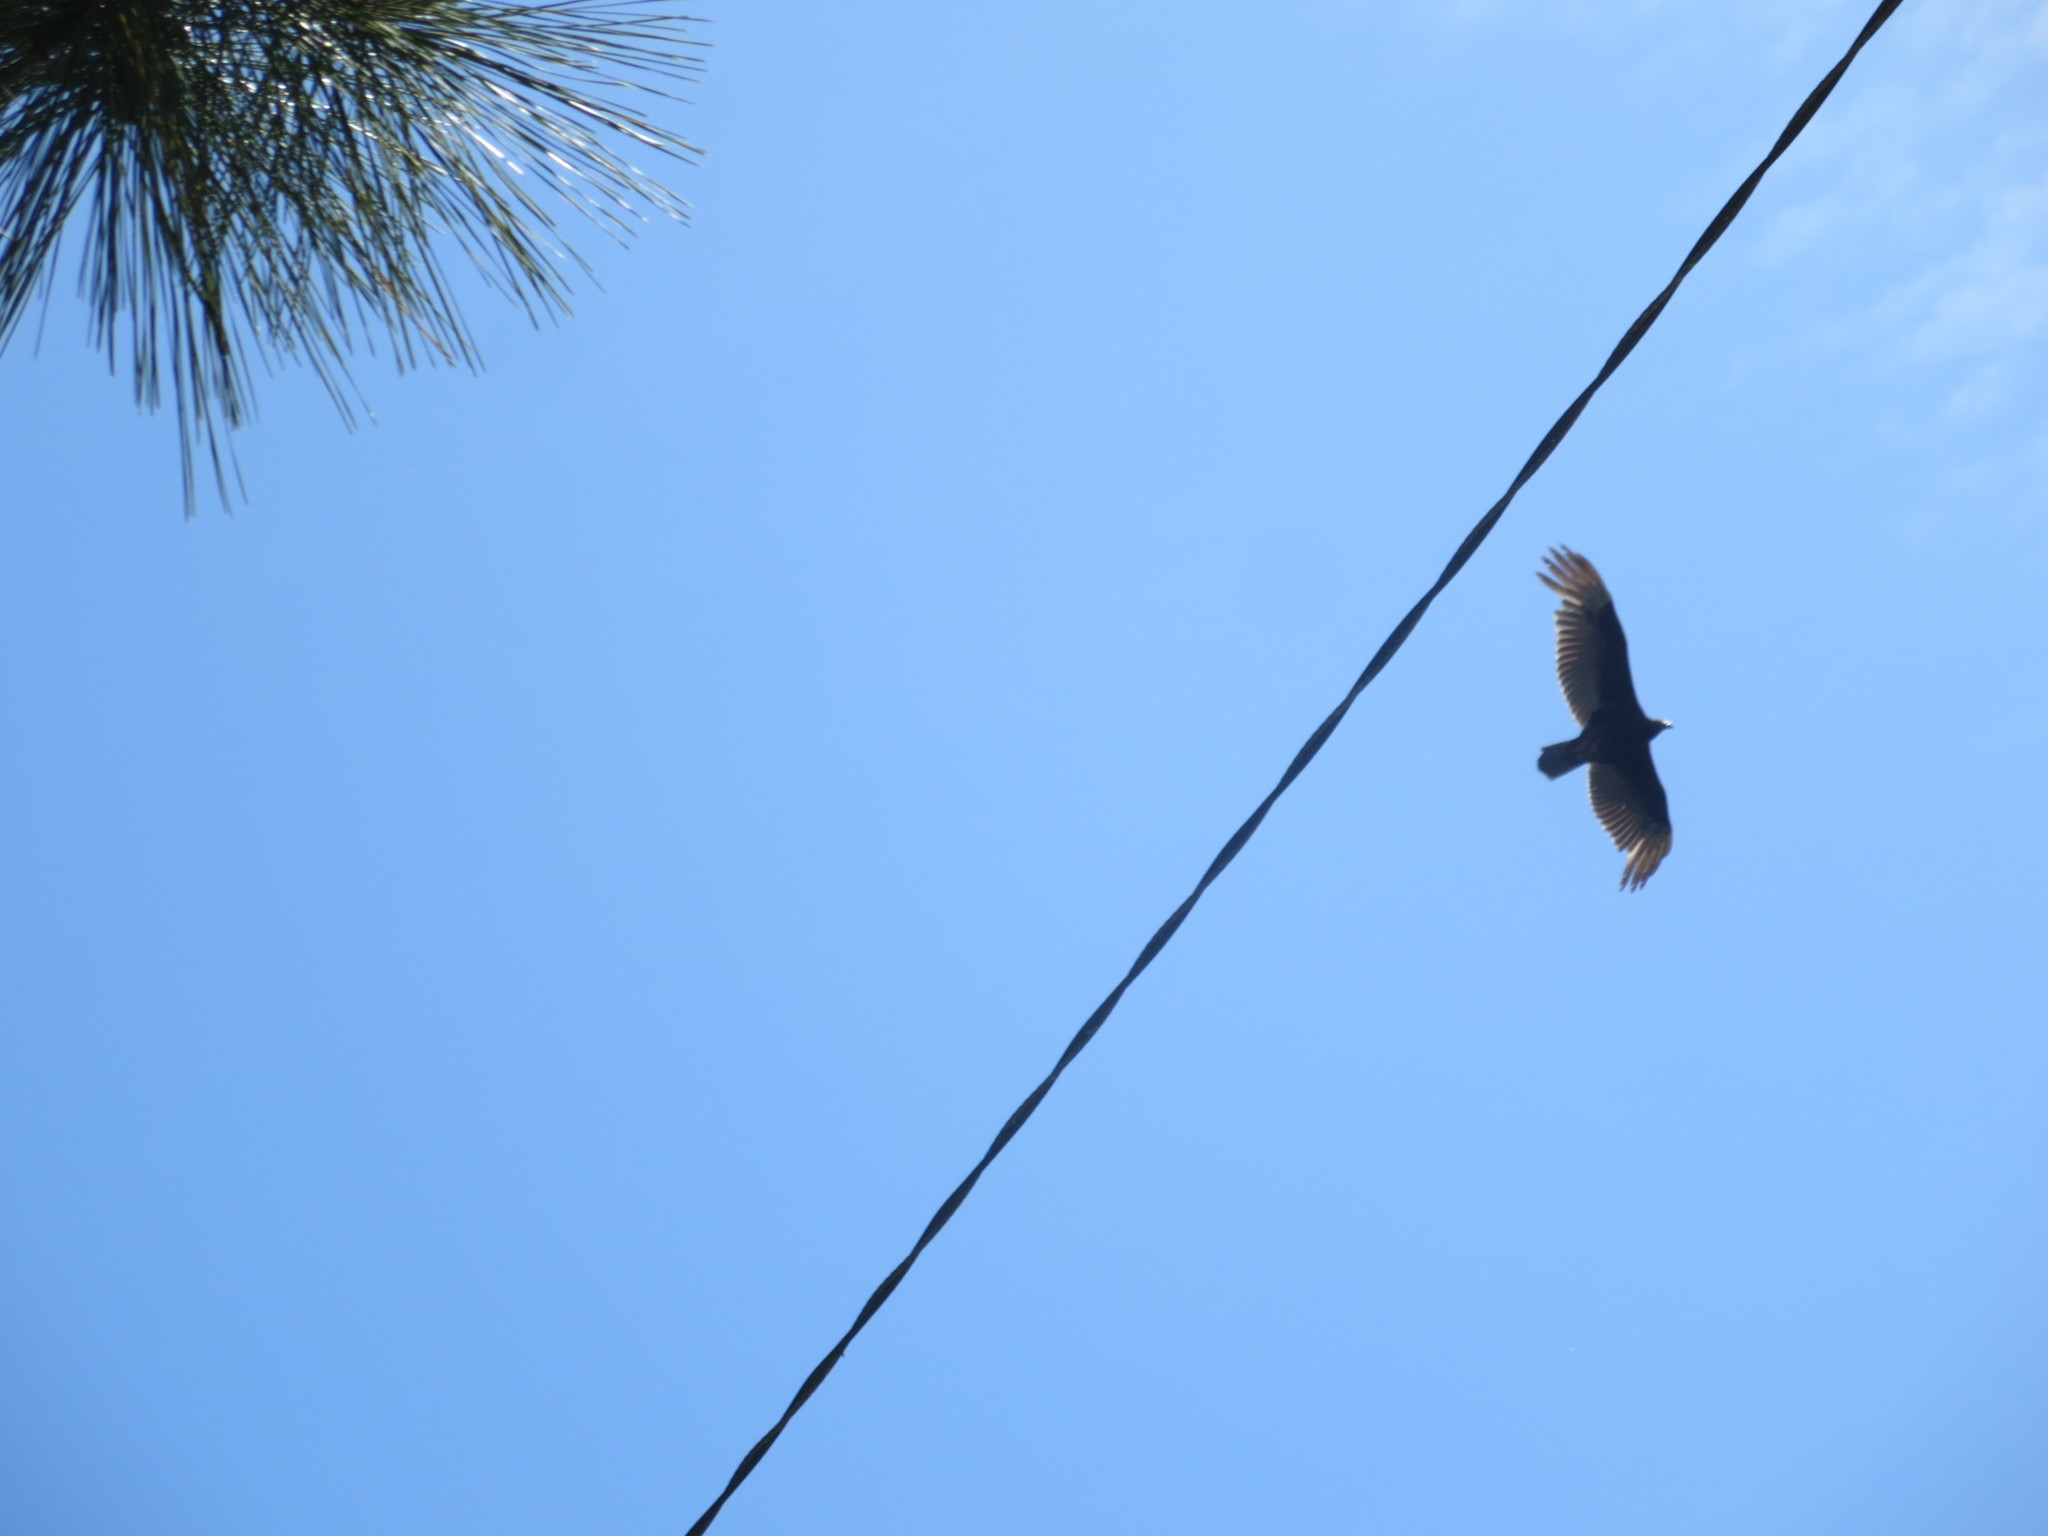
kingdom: Animalia
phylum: Chordata
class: Aves
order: Accipitriformes
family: Cathartidae
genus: Cathartes
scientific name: Cathartes aura
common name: Turkey vulture
